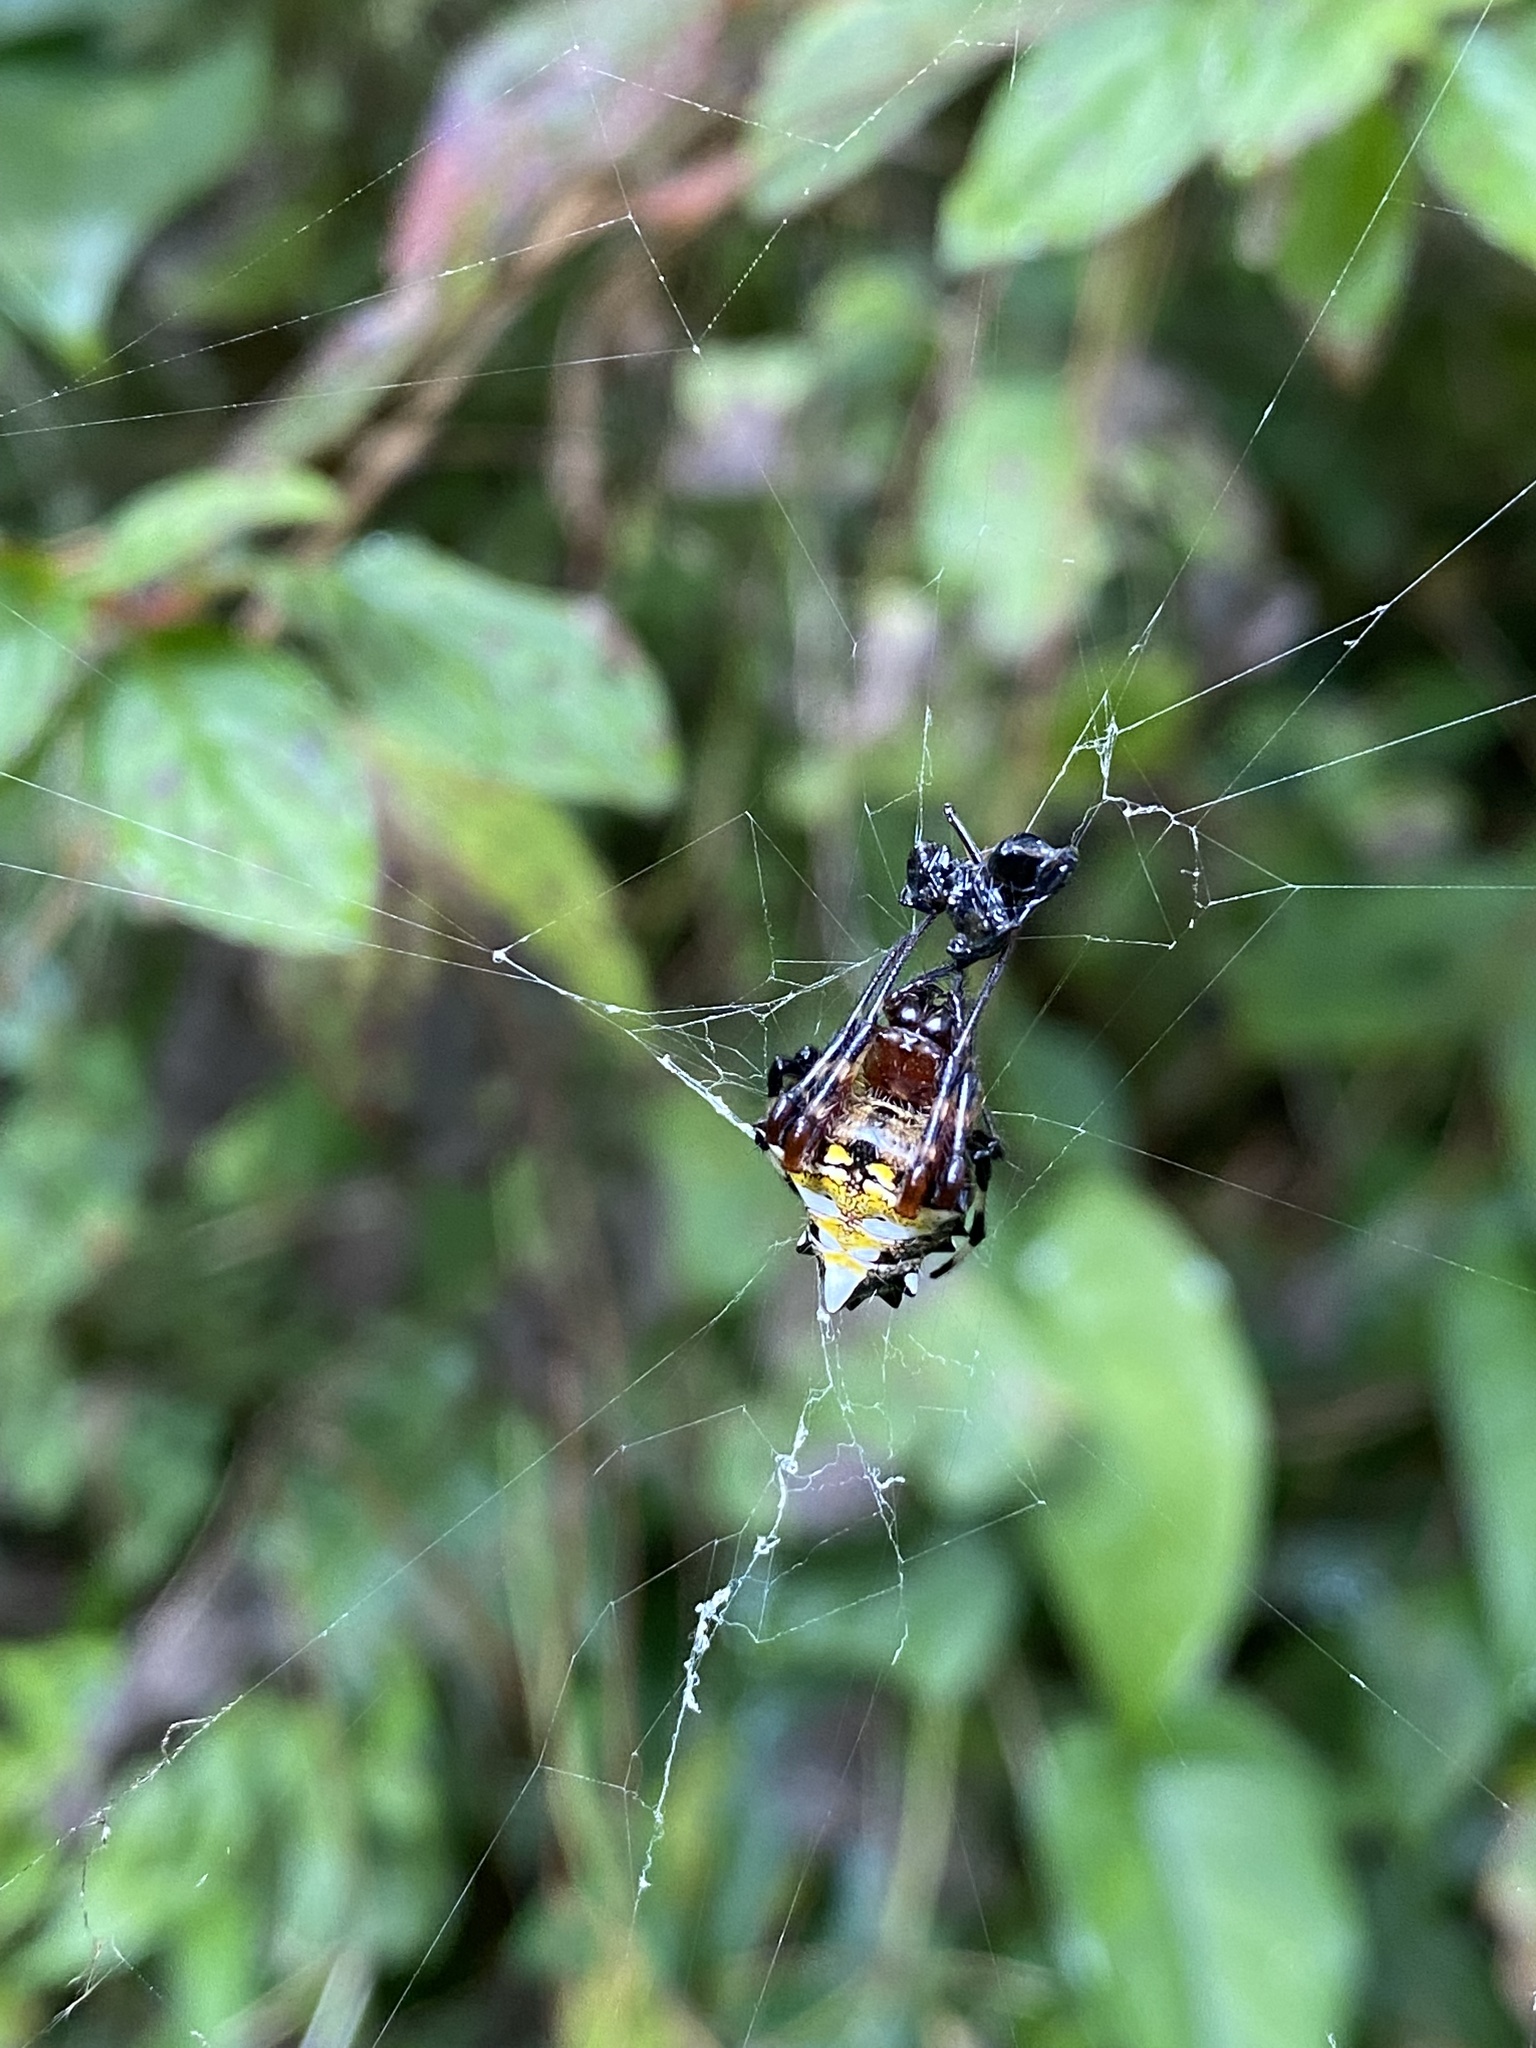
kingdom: Animalia
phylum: Arthropoda
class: Arachnida
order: Araneae
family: Araneidae
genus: Verrucosa
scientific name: Verrucosa arenata
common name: Orb weavers
